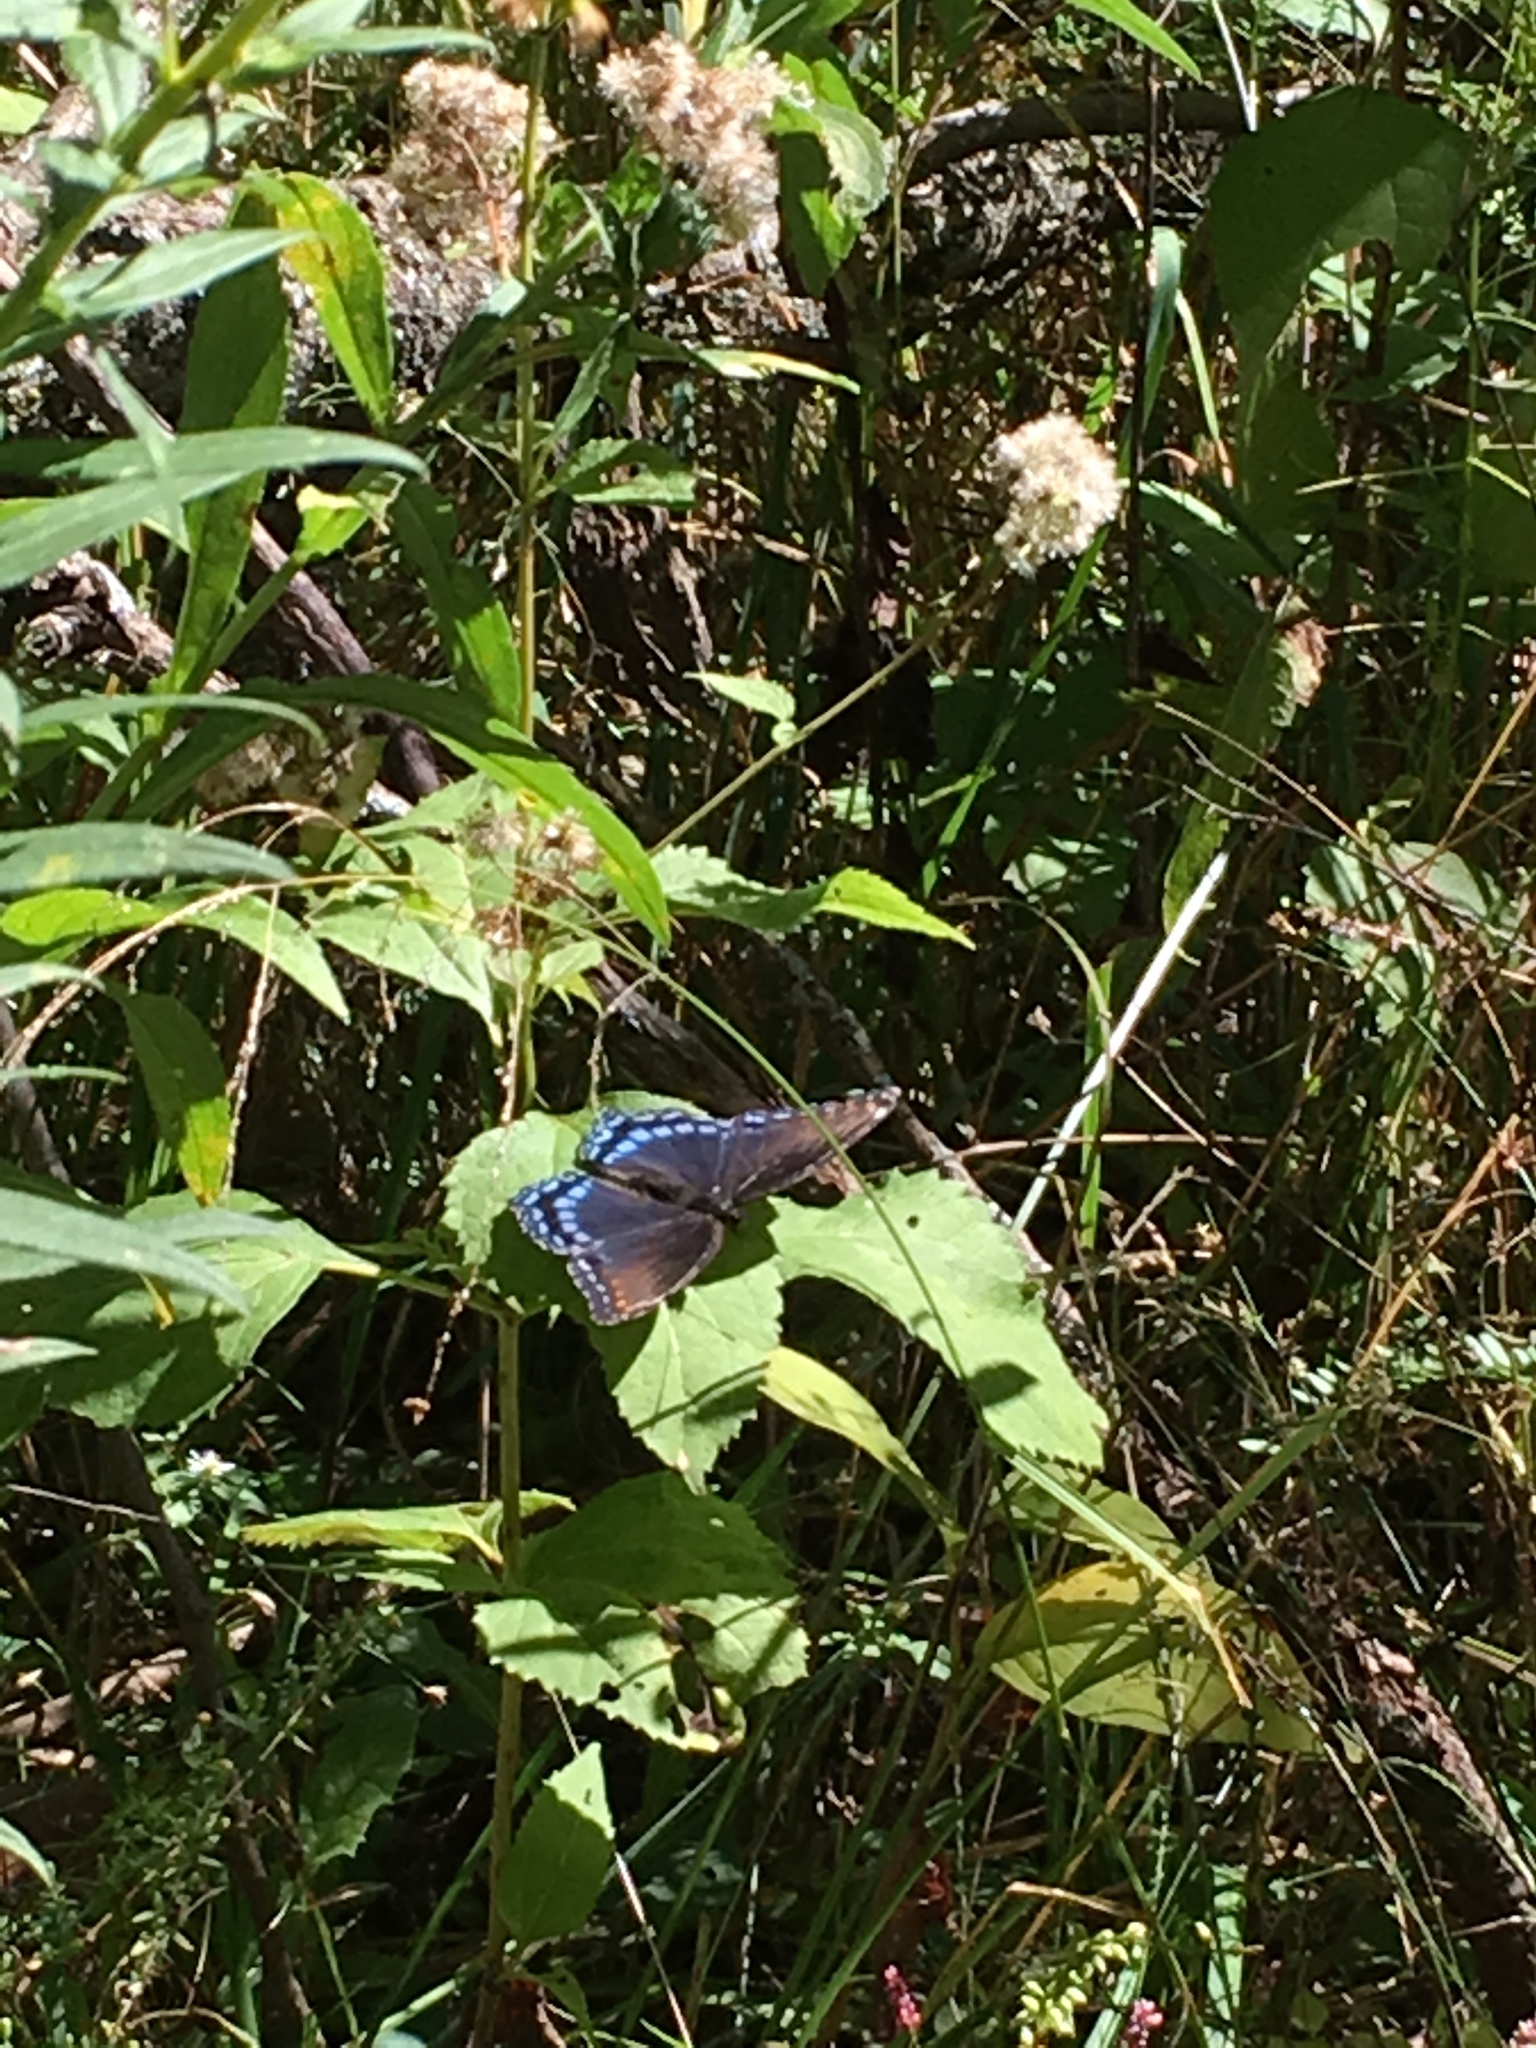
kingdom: Animalia
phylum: Arthropoda
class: Insecta
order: Lepidoptera
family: Nymphalidae
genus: Limenitis
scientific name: Limenitis arthemis
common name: Red-spotted admiral
